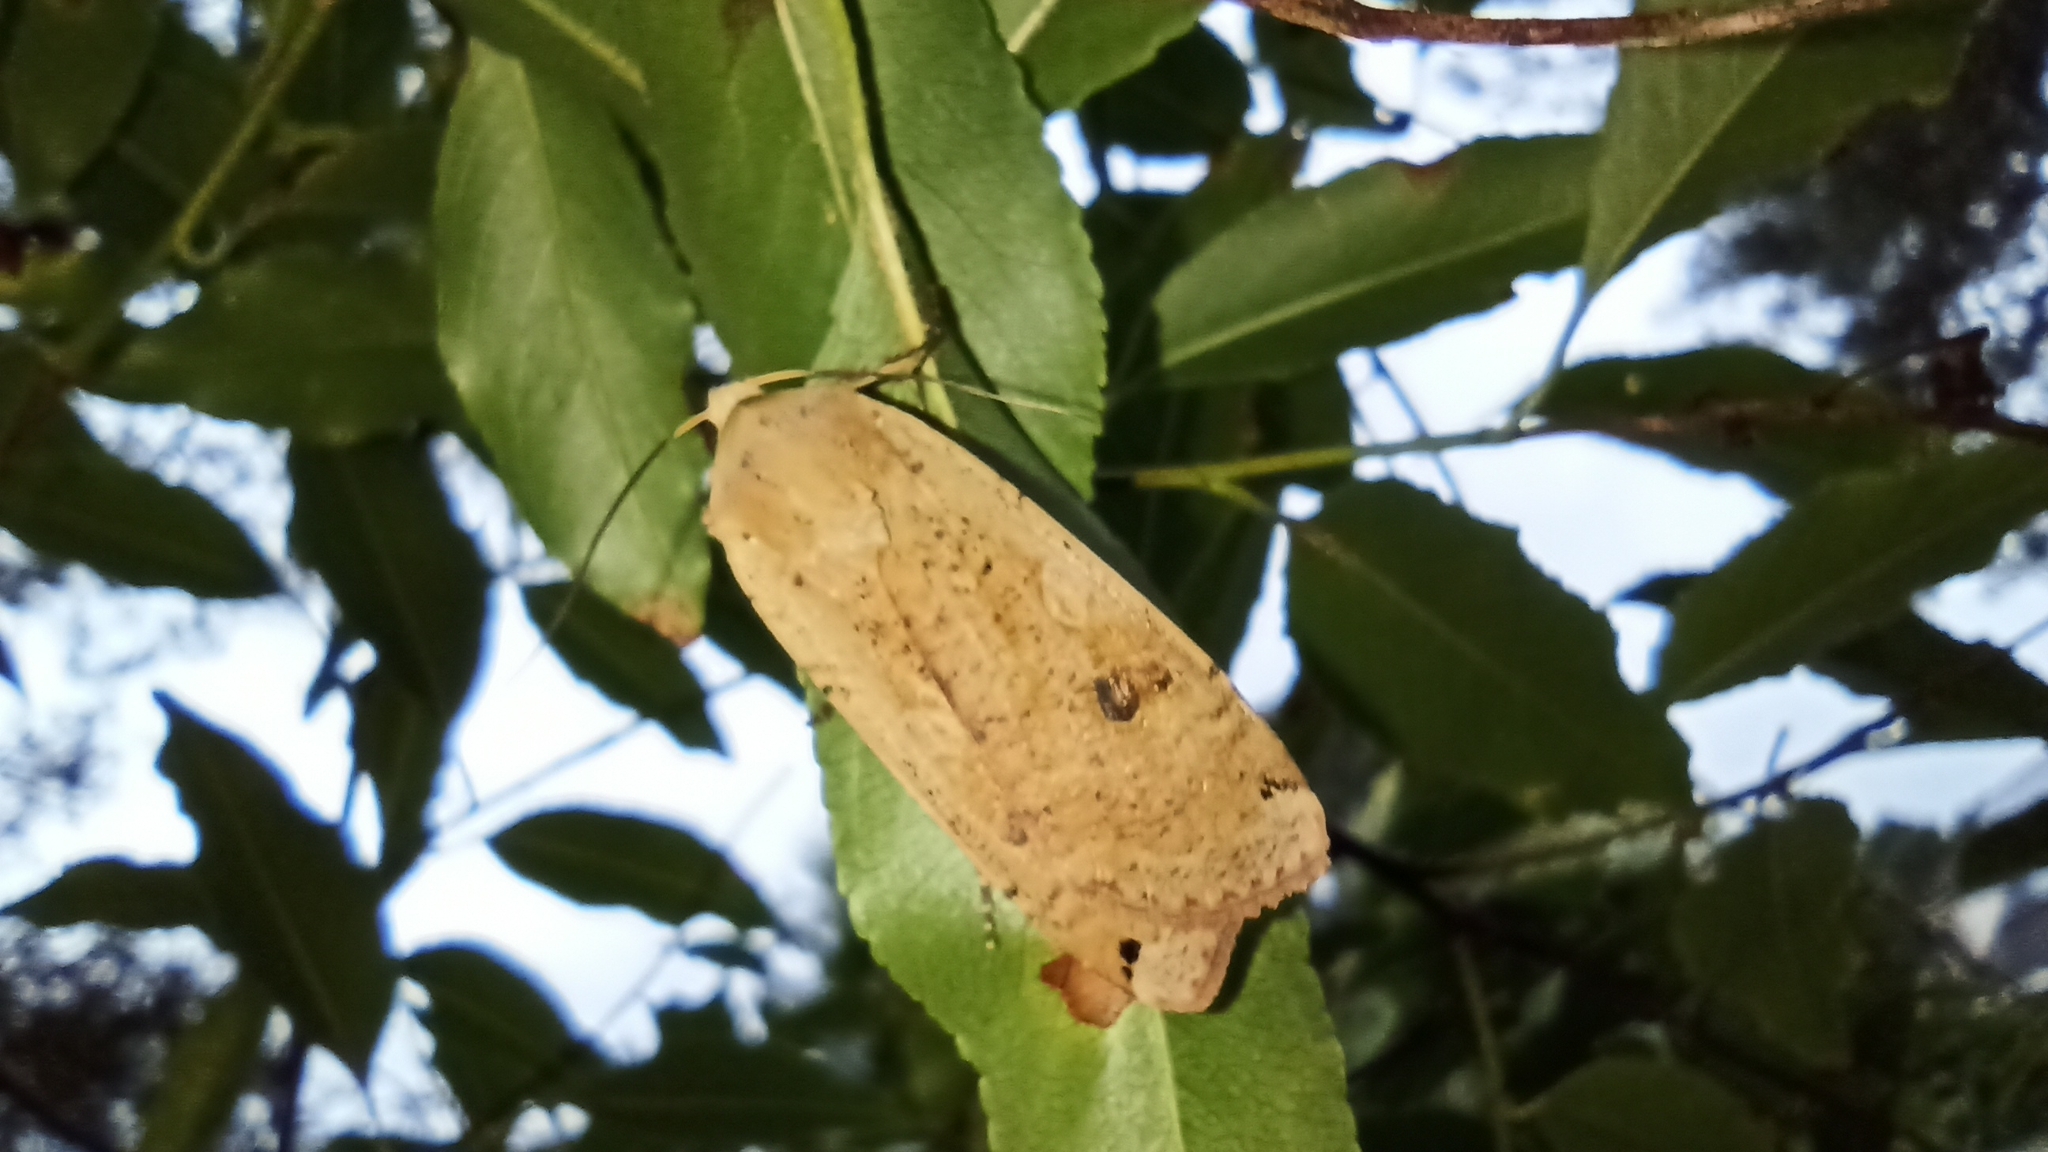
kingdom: Animalia
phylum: Arthropoda
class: Insecta
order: Lepidoptera
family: Noctuidae
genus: Noctua
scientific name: Noctua pronuba
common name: Large yellow underwing
